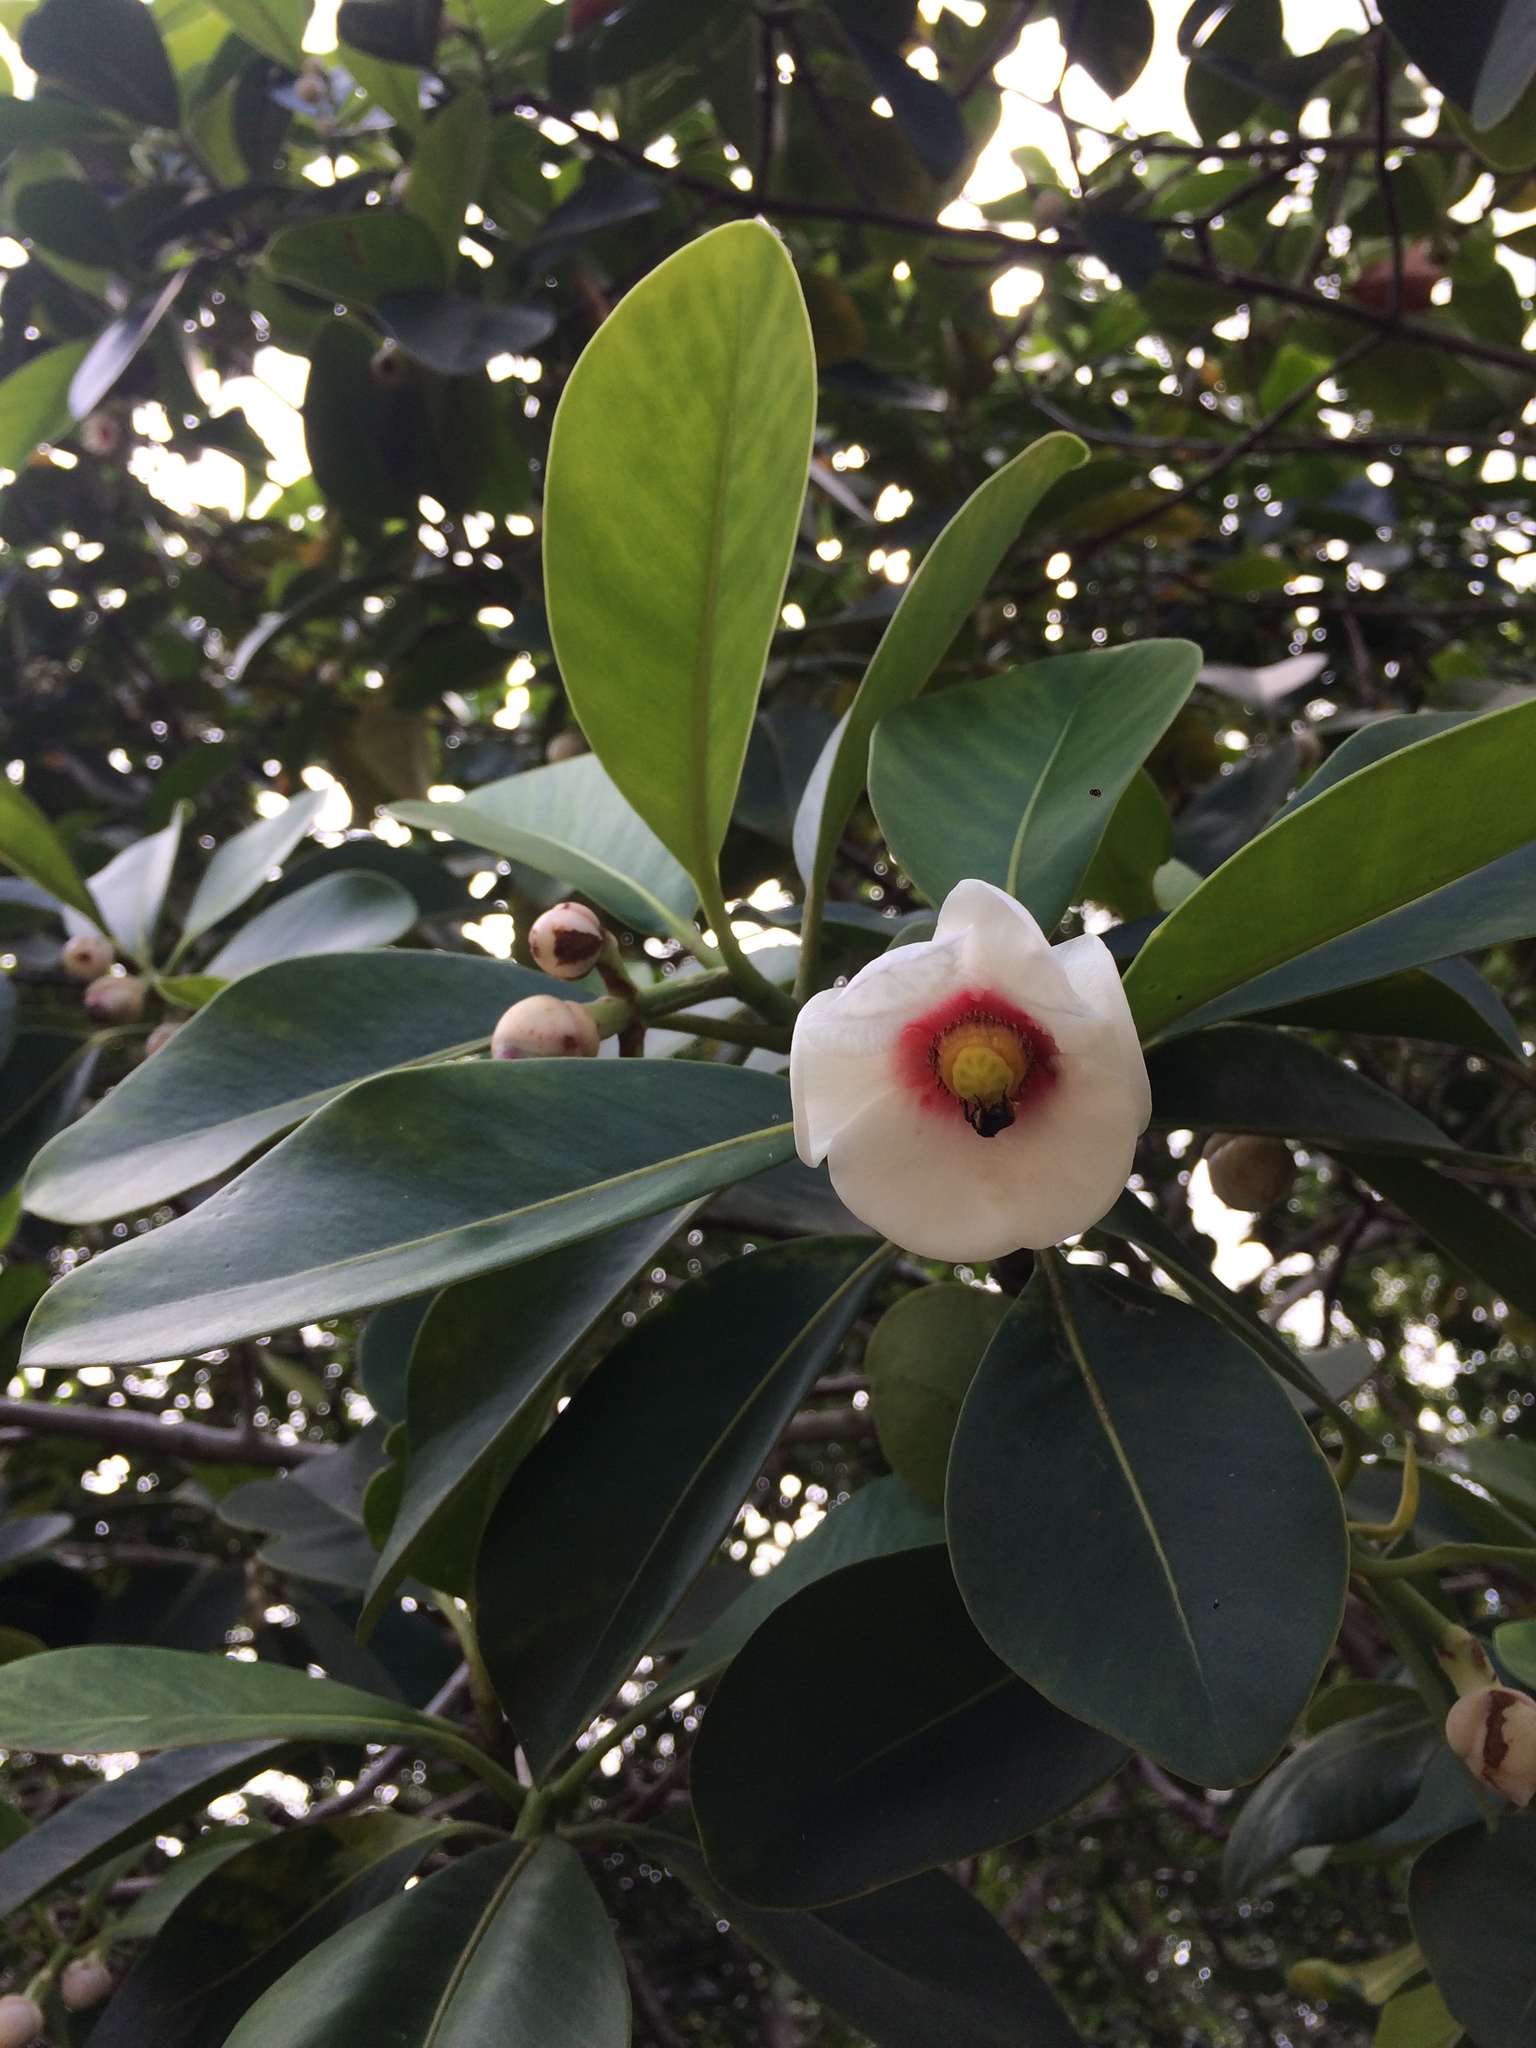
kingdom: Plantae
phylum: Tracheophyta
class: Magnoliopsida
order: Malpighiales
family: Clusiaceae
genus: Clusia
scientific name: Clusia nemorosa
